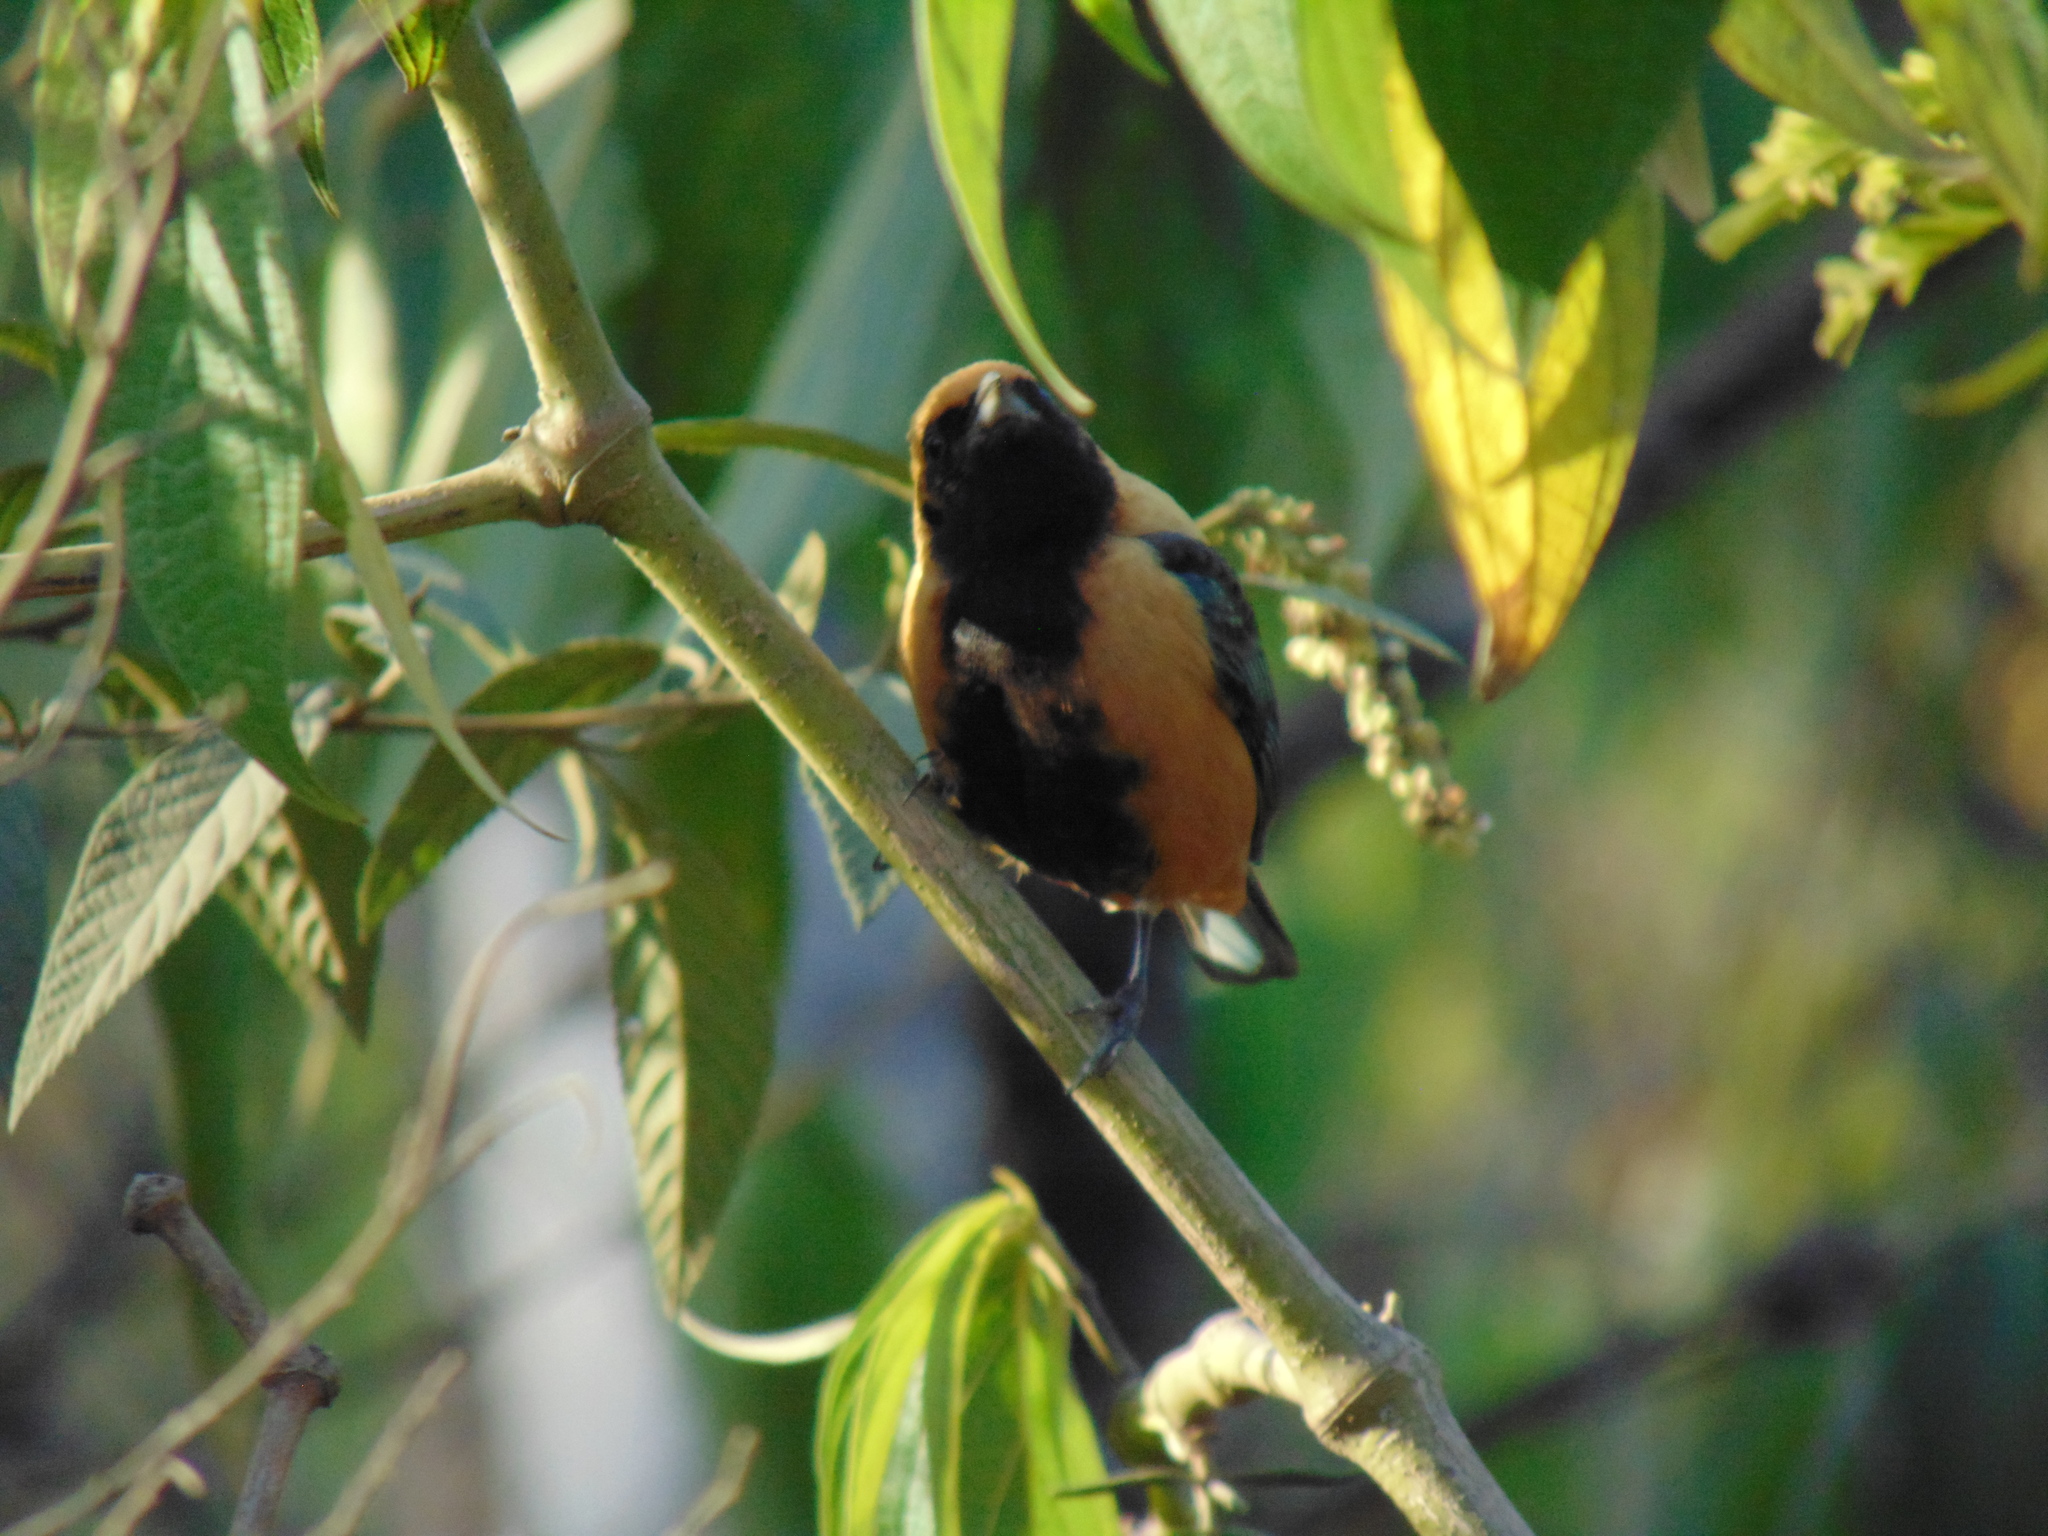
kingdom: Animalia
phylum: Chordata
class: Aves
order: Passeriformes
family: Thraupidae
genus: Stilpnia
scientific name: Stilpnia cayana
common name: Burnished-buff tanager
